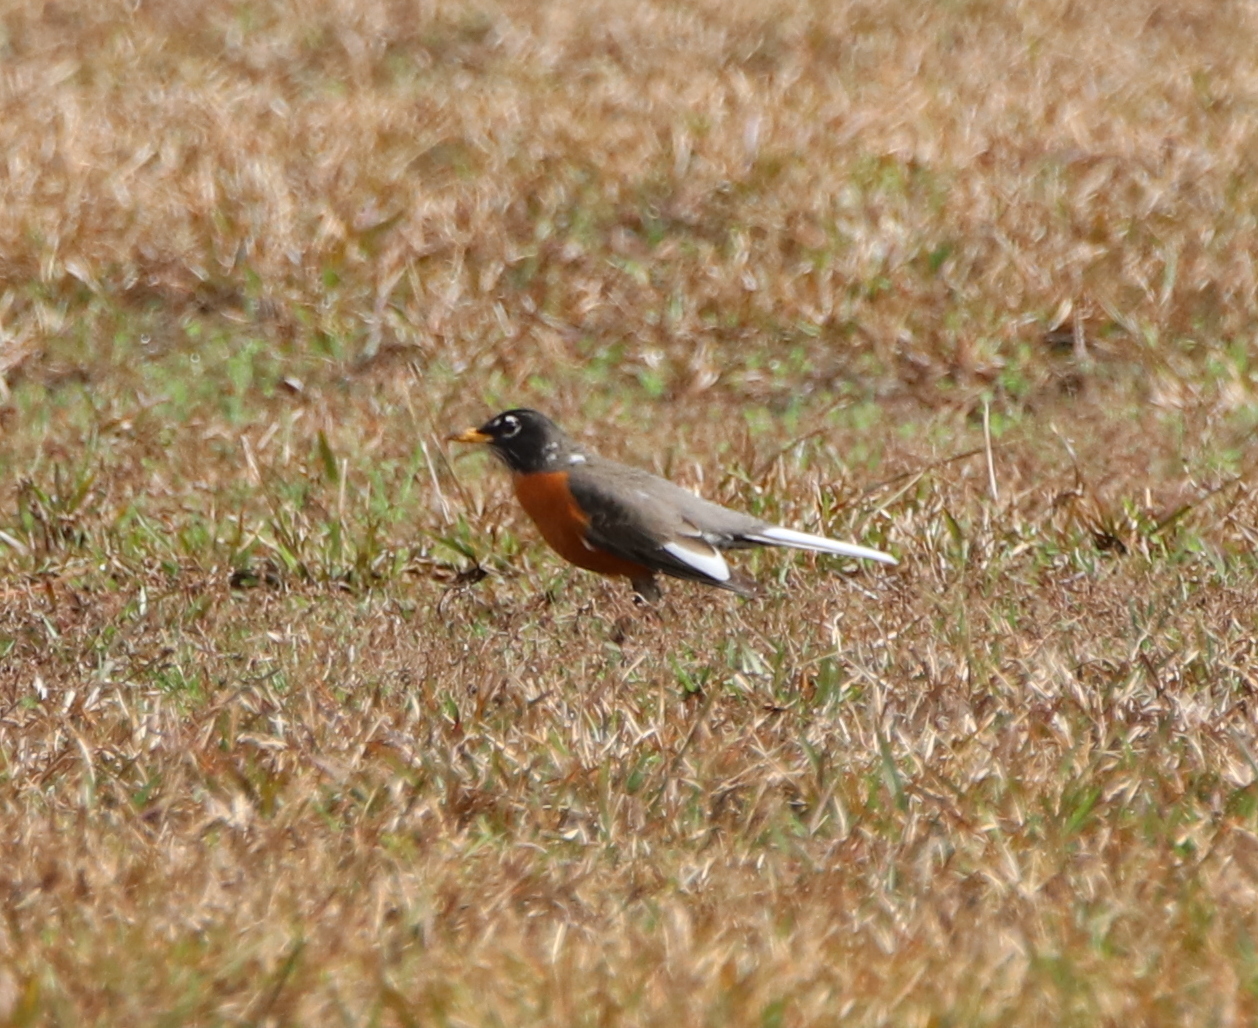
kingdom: Animalia
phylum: Chordata
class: Aves
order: Passeriformes
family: Turdidae
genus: Turdus
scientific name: Turdus migratorius
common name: American robin
